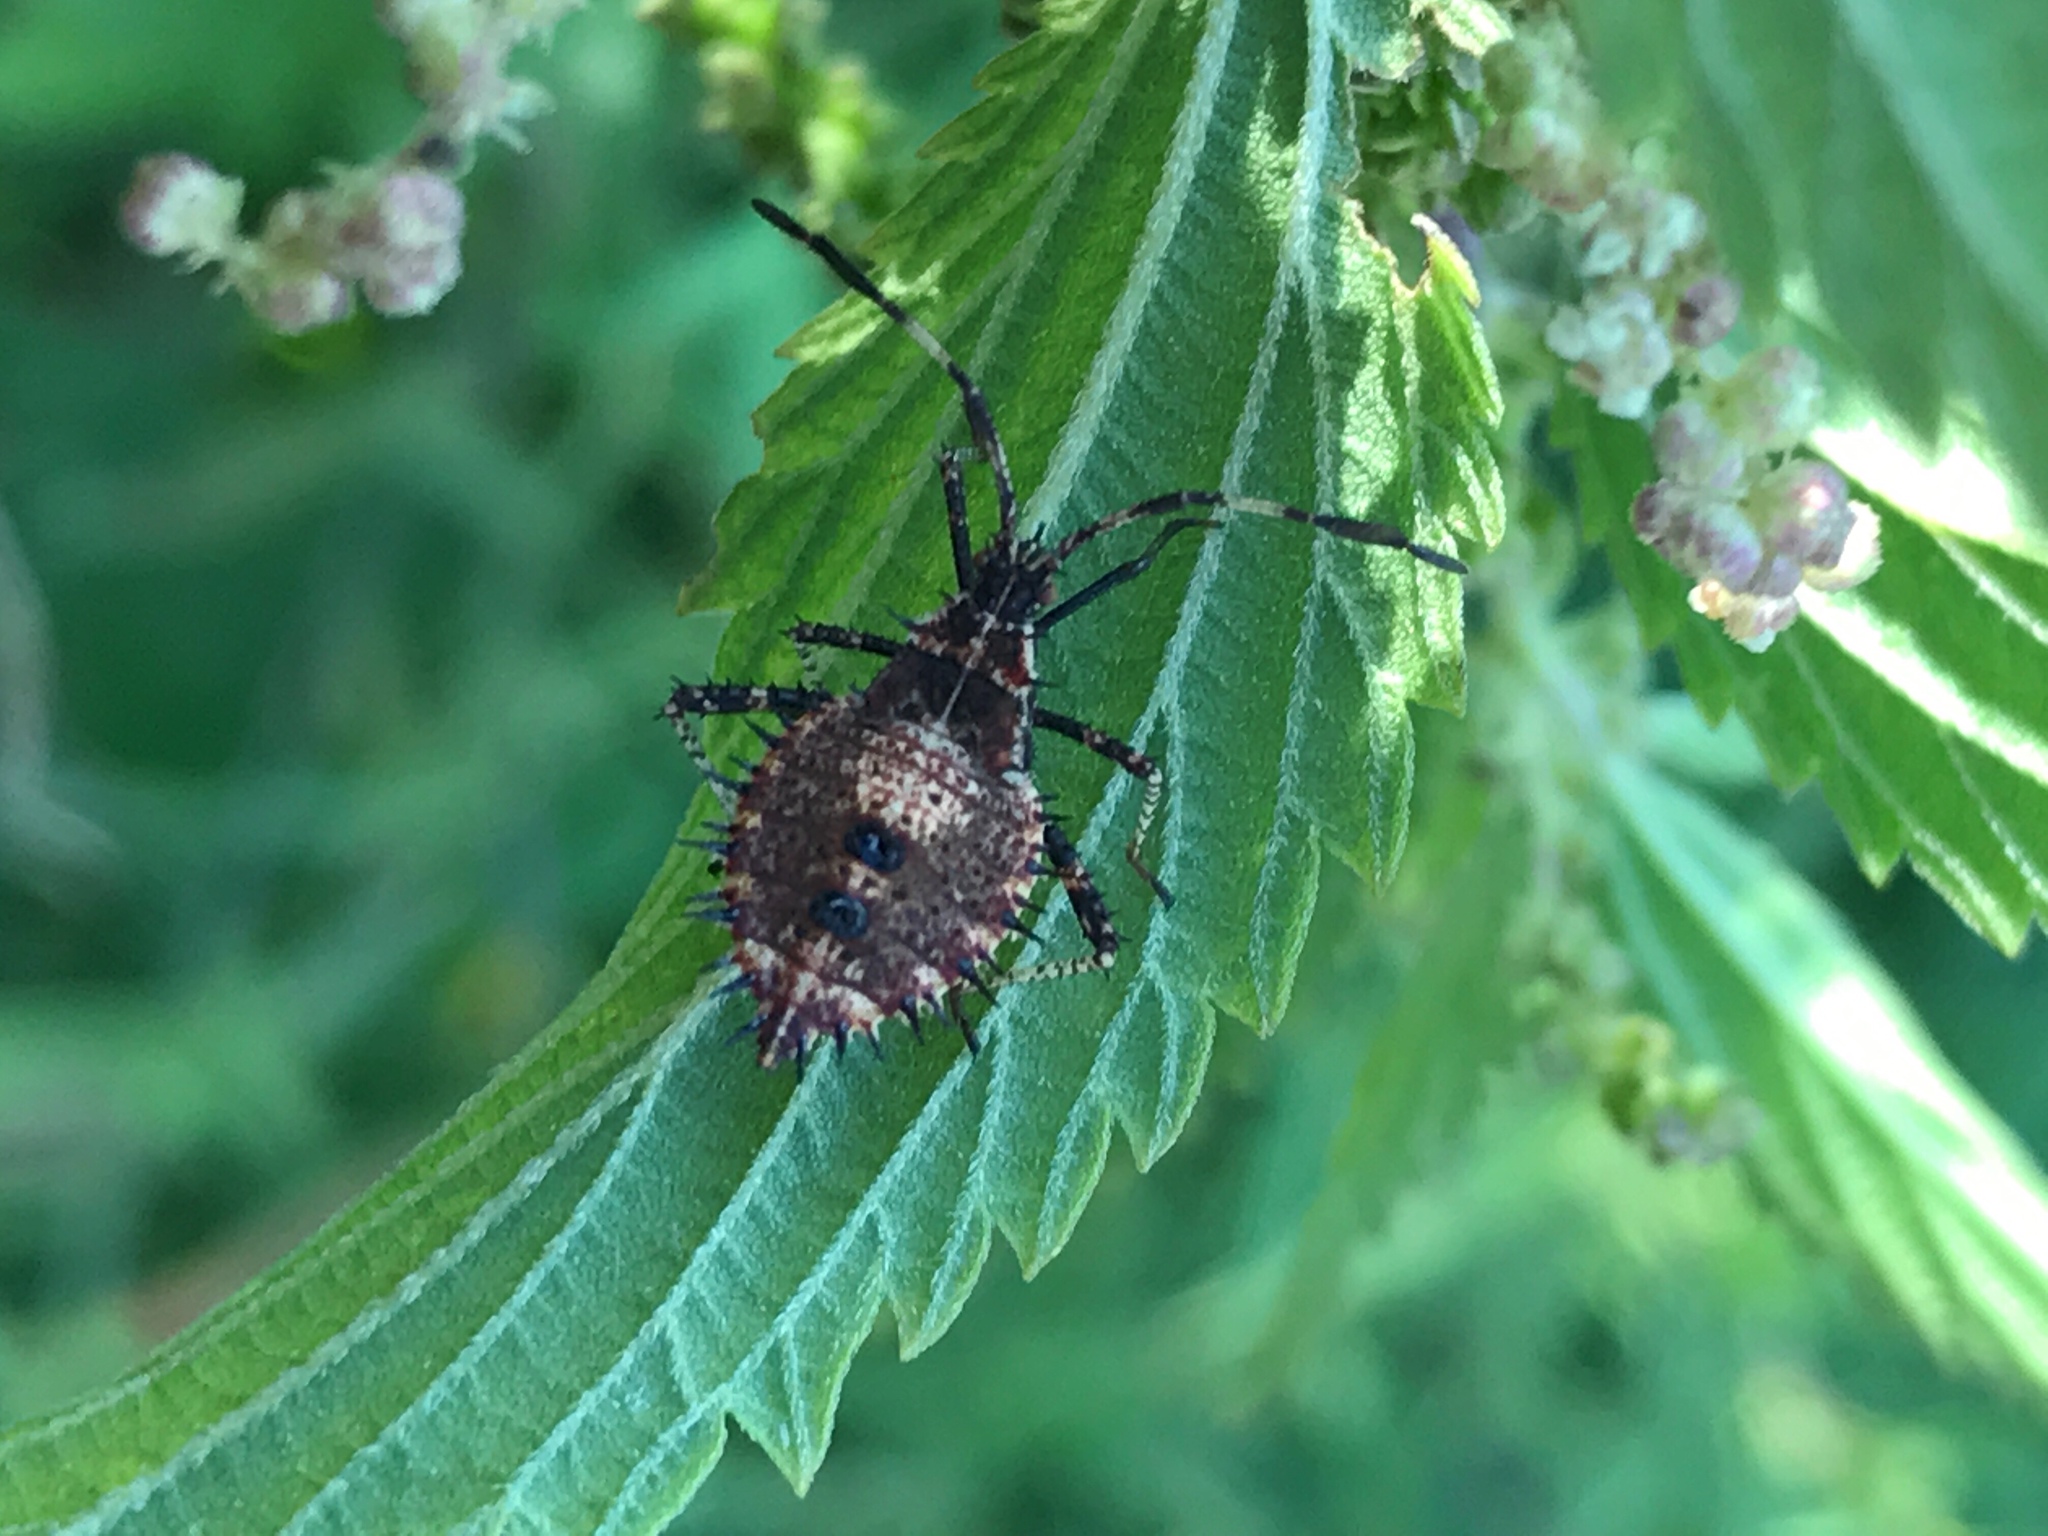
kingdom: Animalia
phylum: Arthropoda
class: Insecta
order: Hemiptera
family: Coreidae
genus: Euthochtha
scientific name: Euthochtha galeator
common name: Helmeted squash bug
